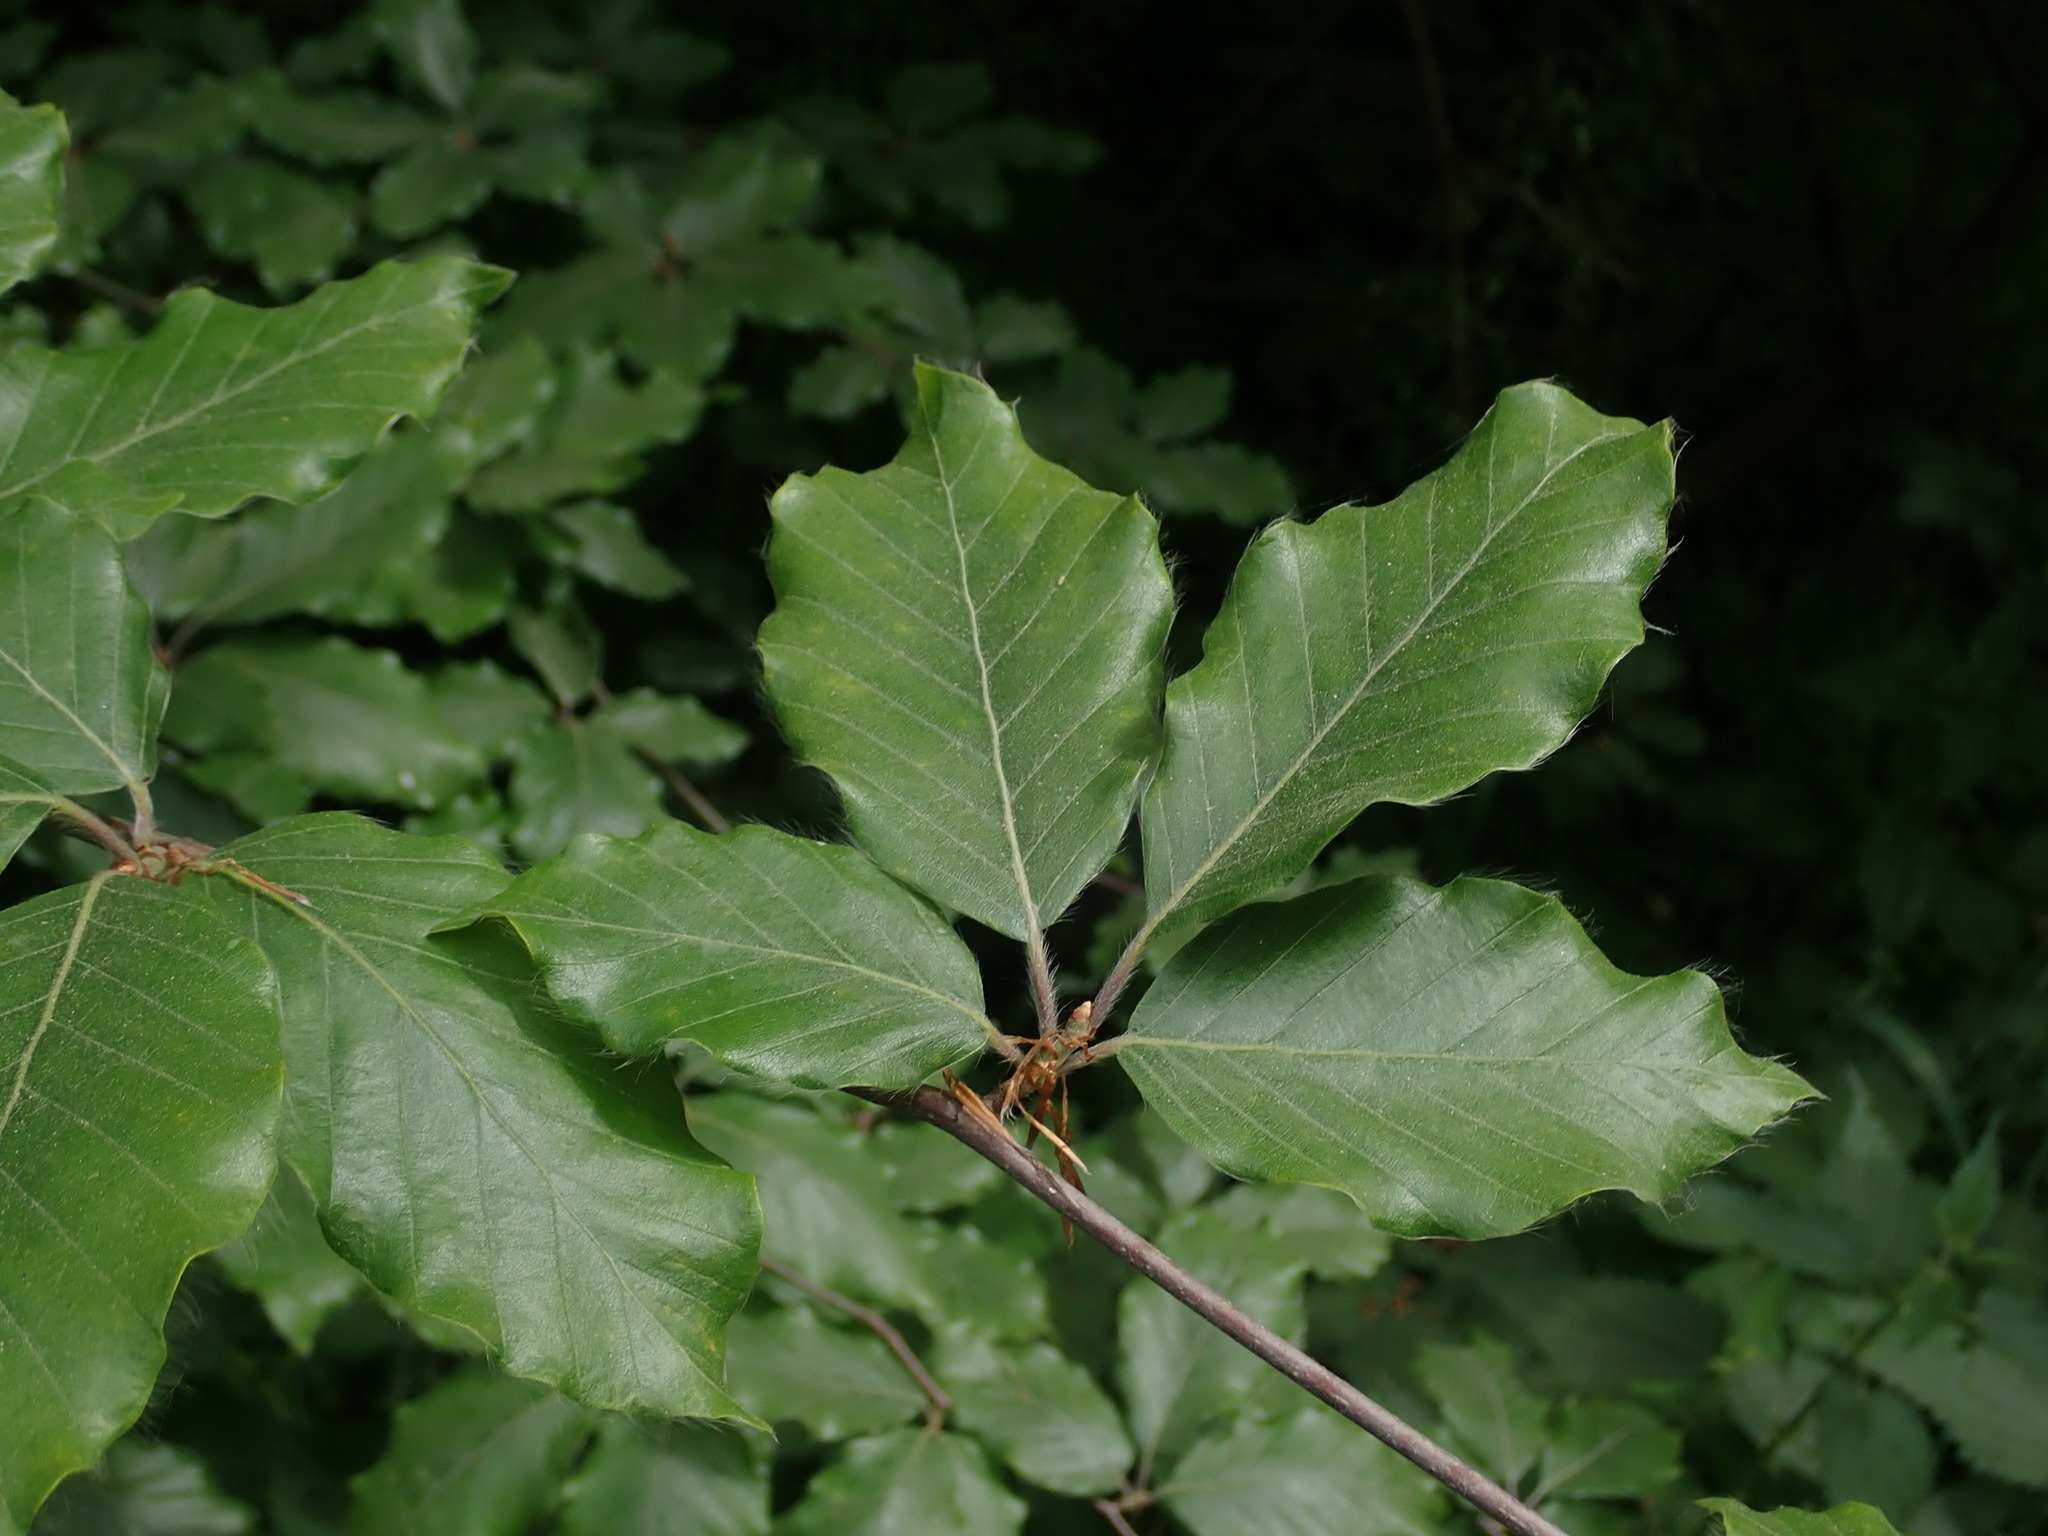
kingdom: Plantae
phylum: Tracheophyta
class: Magnoliopsida
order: Fagales
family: Fagaceae
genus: Fagus
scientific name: Fagus sylvatica
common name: Beech
